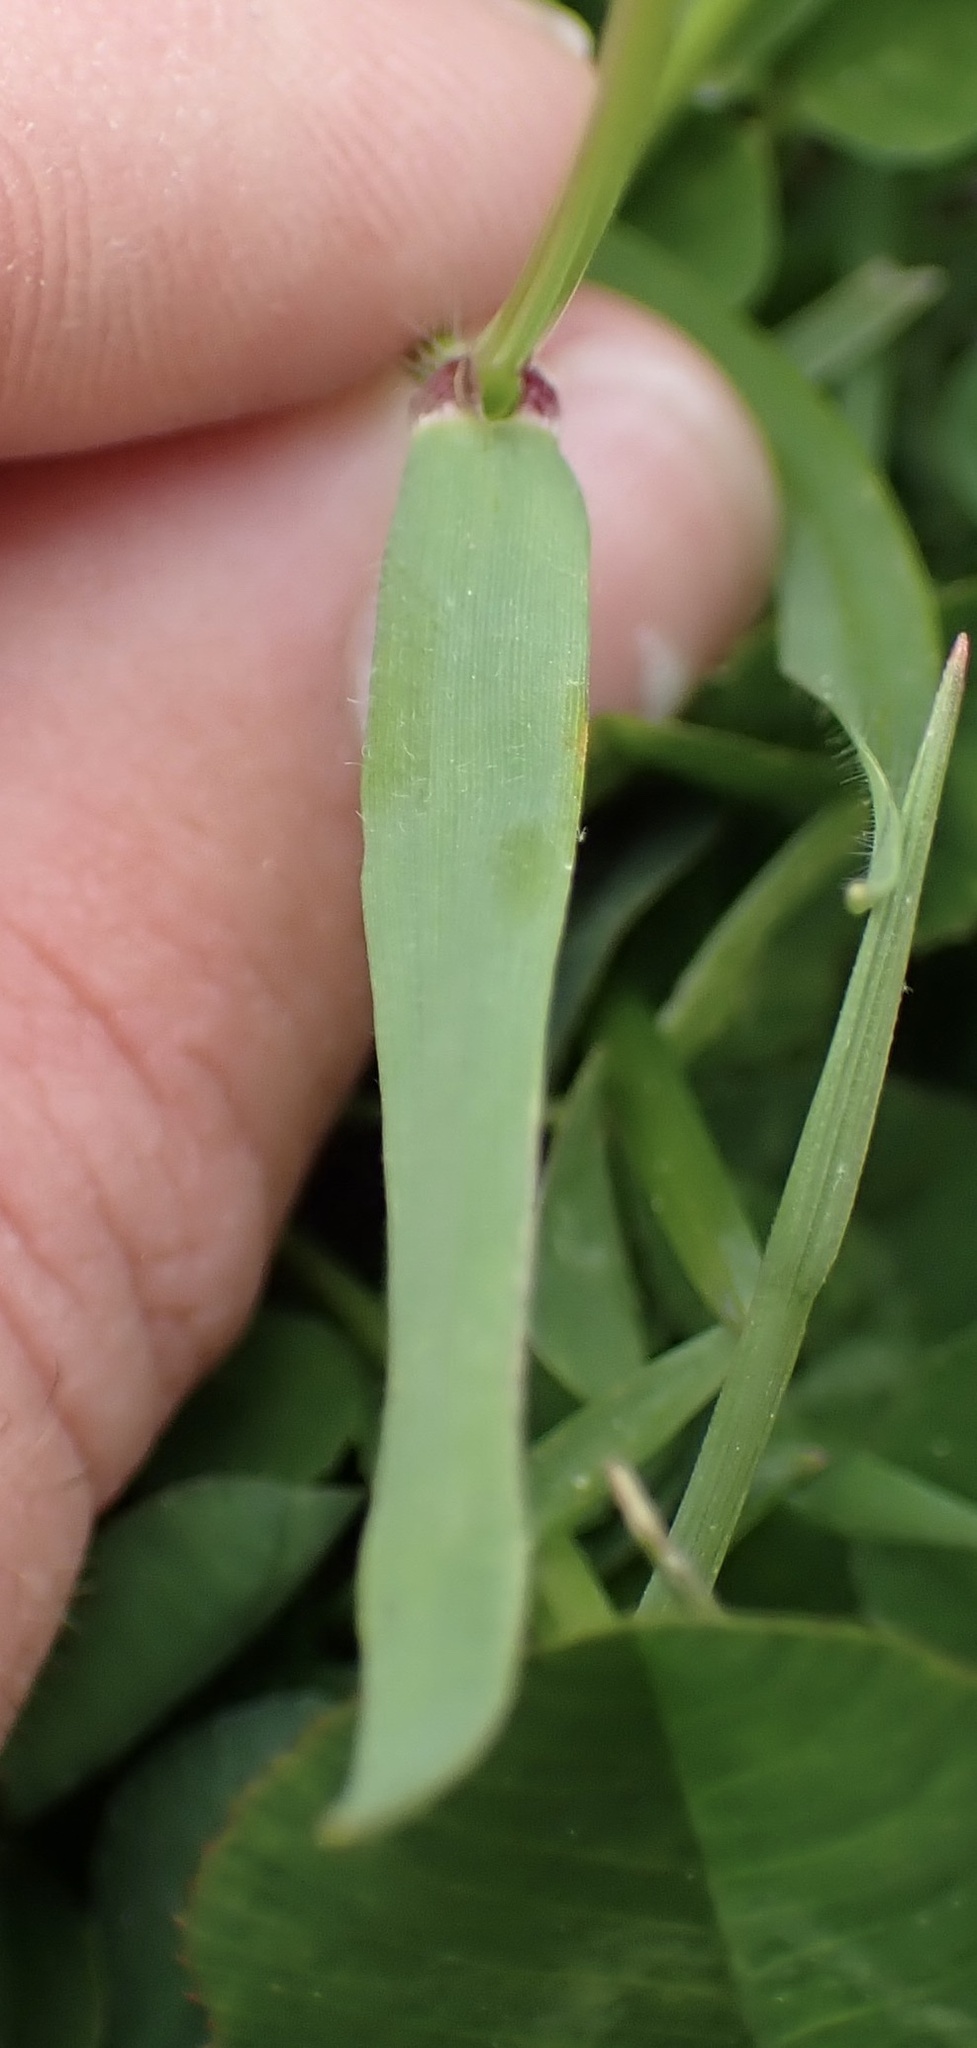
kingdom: Plantae
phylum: Tracheophyta
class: Liliopsida
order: Poales
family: Poaceae
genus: Anthoxanthum
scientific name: Anthoxanthum odoratum
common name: Sweet vernalgrass
